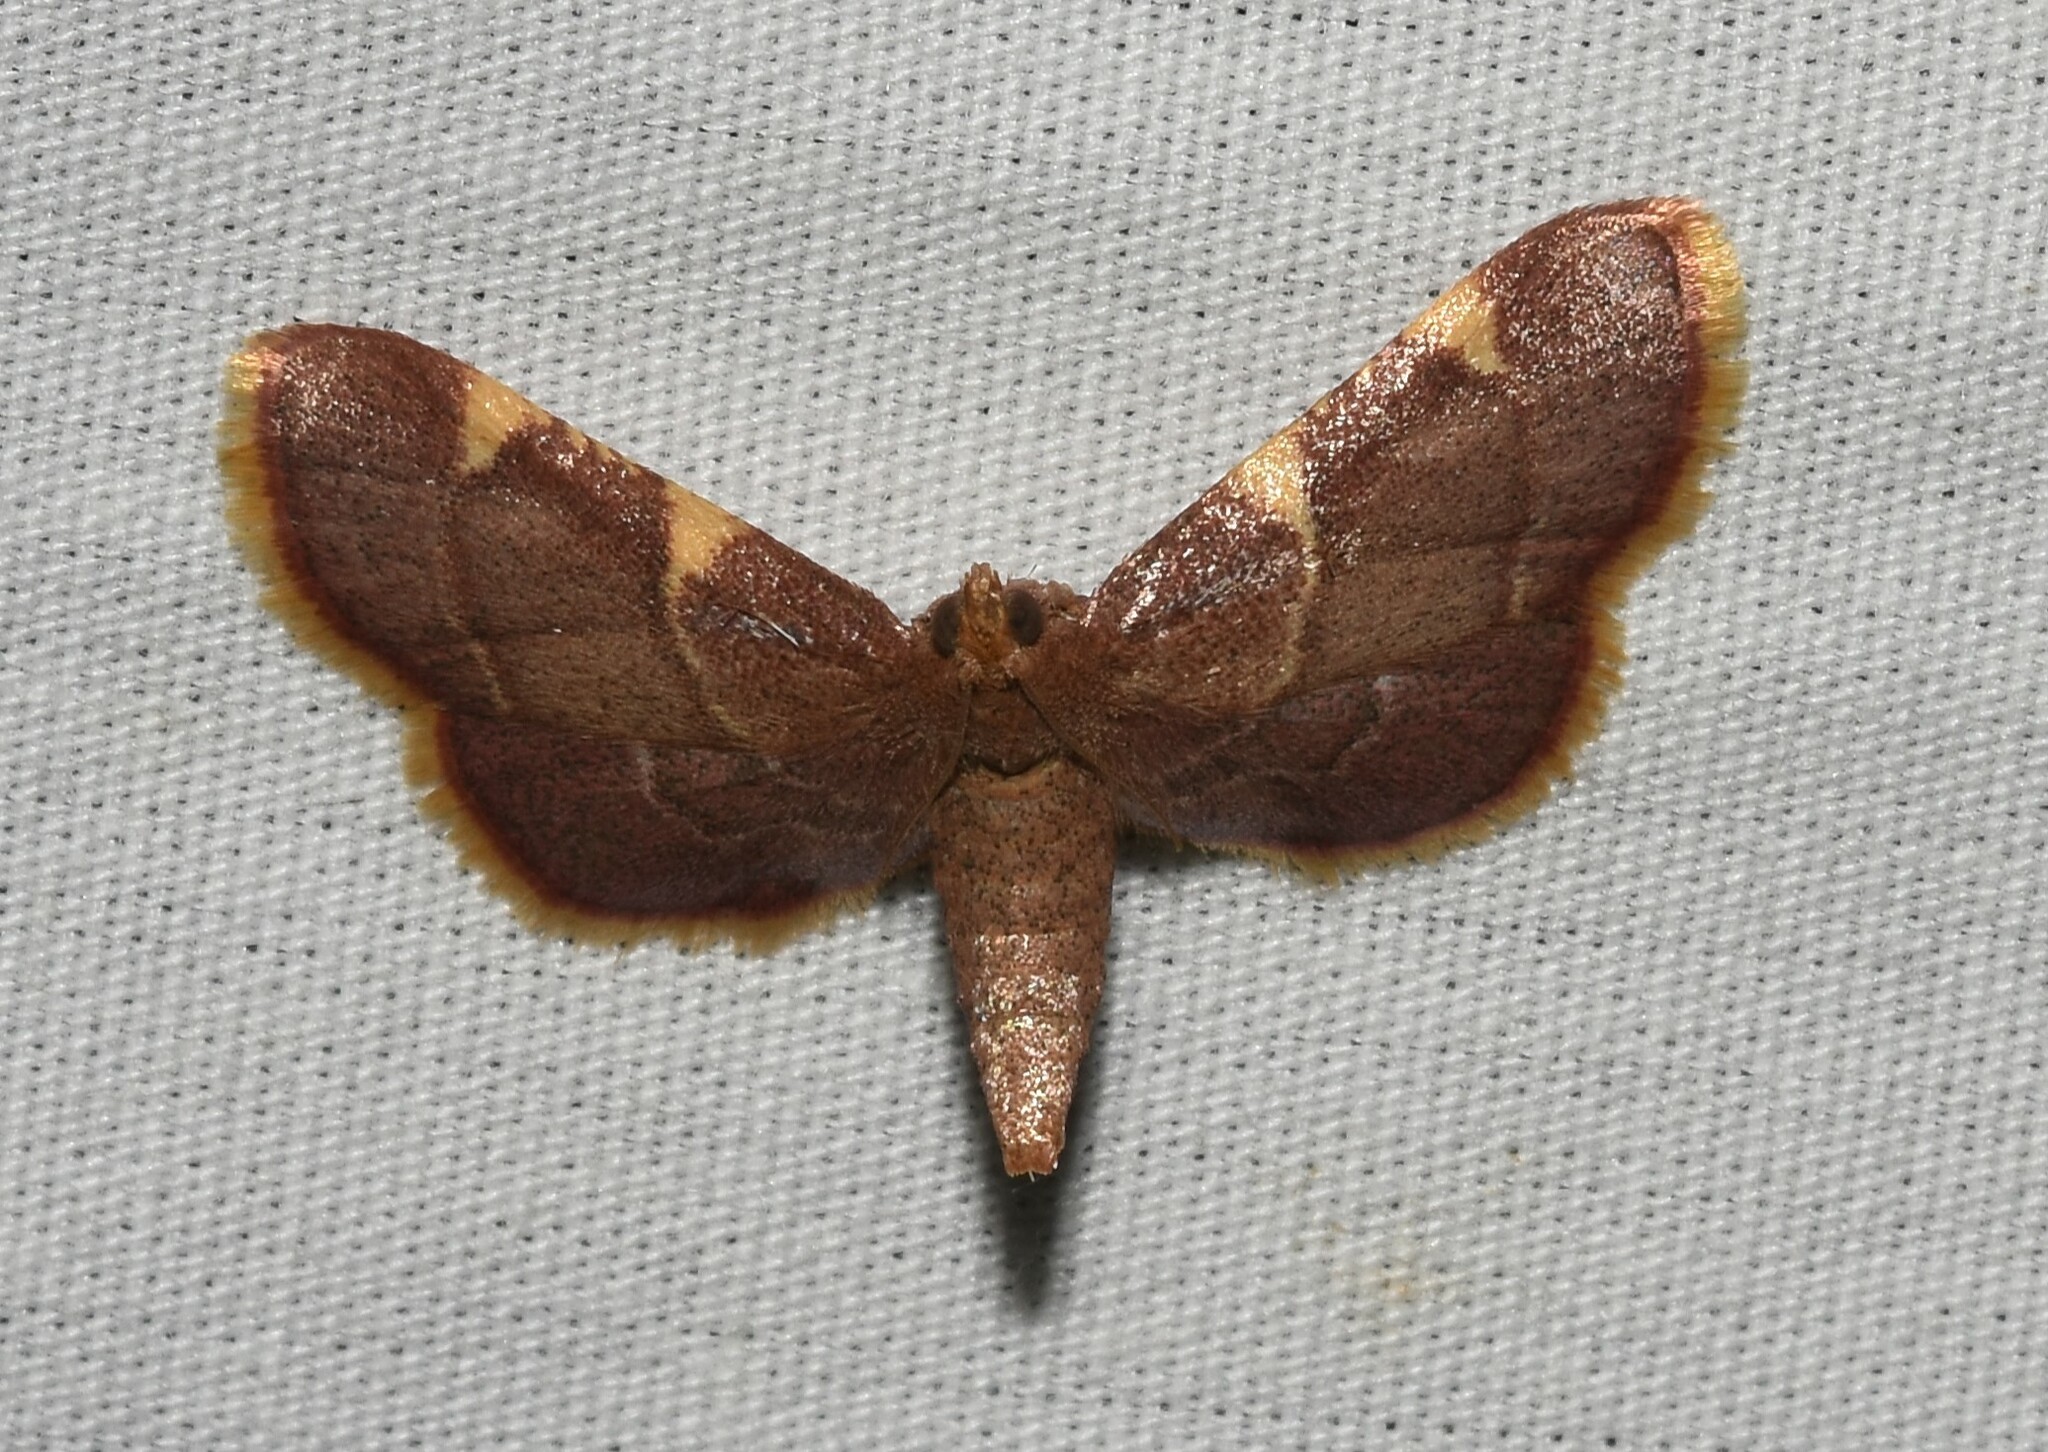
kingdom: Animalia
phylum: Arthropoda
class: Insecta
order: Lepidoptera
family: Pyralidae
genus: Hypsopygia
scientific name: Hypsopygia olinalis
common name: Yellow-fringed dolichomia moth
